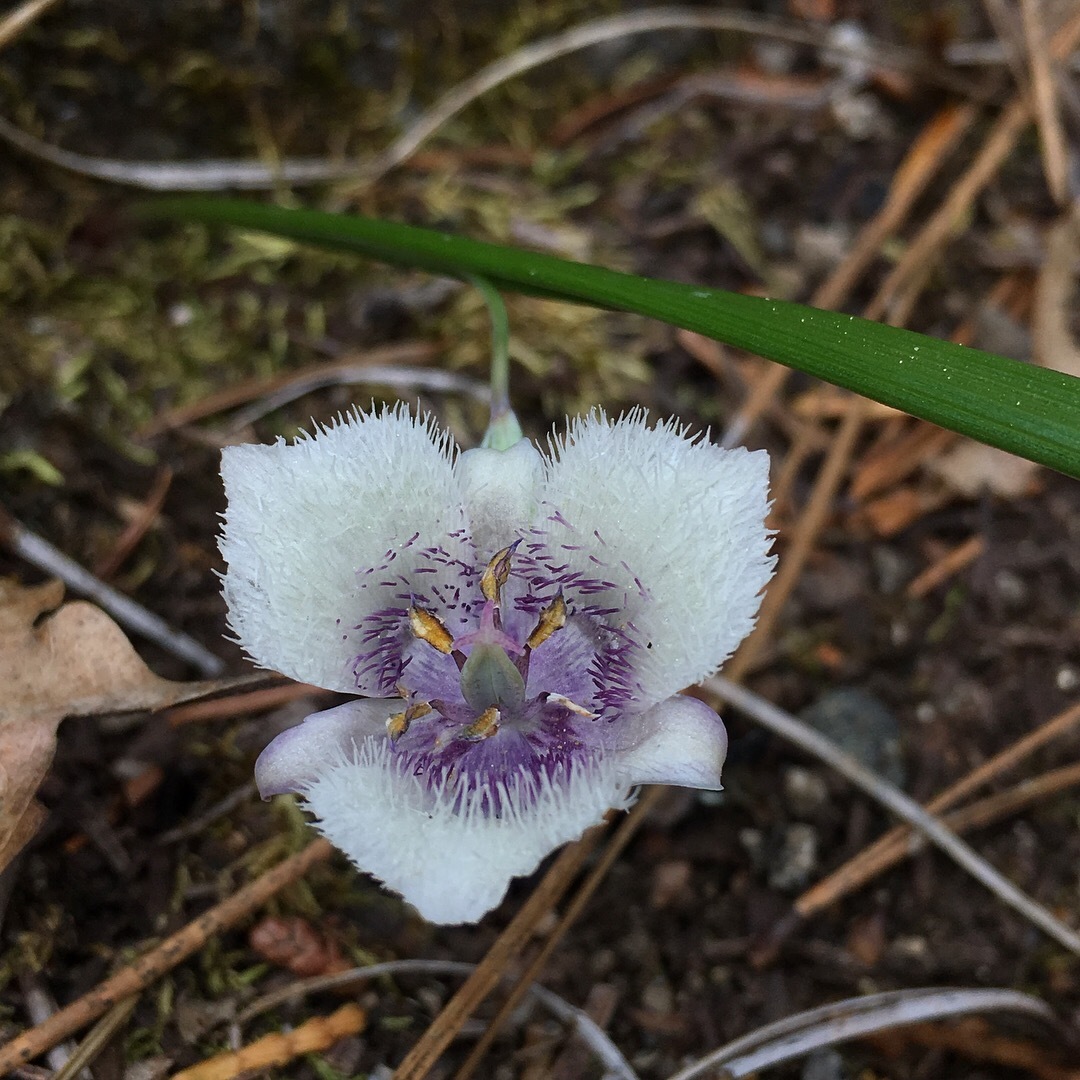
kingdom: Plantae
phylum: Tracheophyta
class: Liliopsida
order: Liliales
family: Liliaceae
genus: Calochortus
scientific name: Calochortus tolmiei
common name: Pussy-ears
